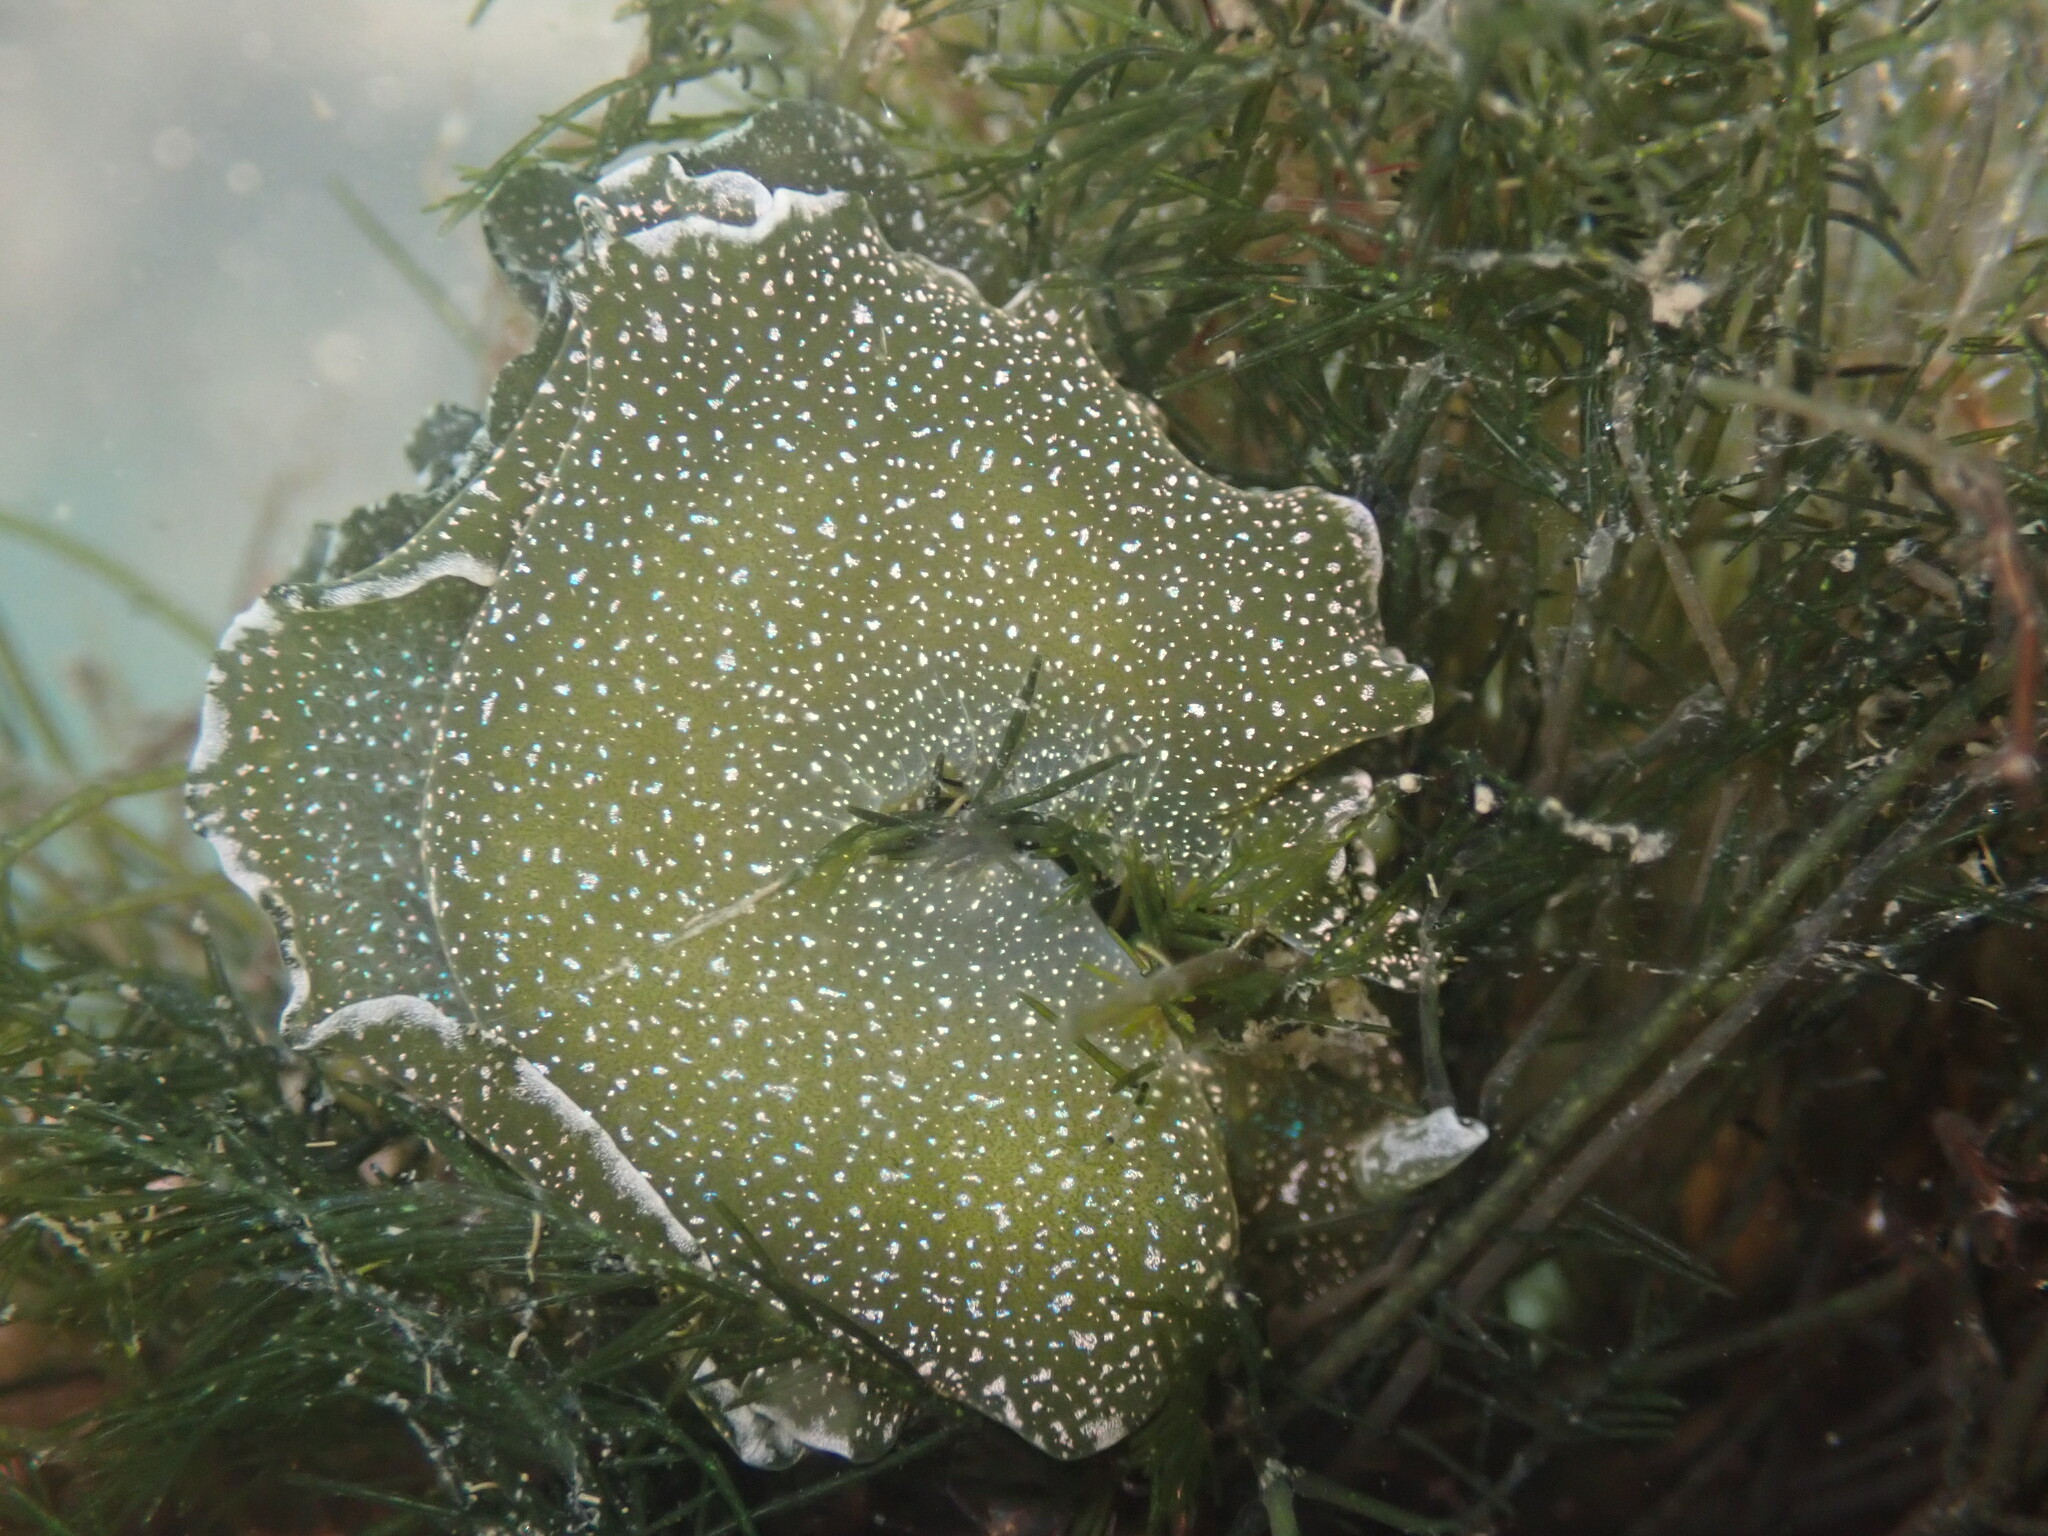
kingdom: Animalia
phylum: Mollusca
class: Gastropoda
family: Plakobranchidae
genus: Elysia
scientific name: Elysia hedgpethi
